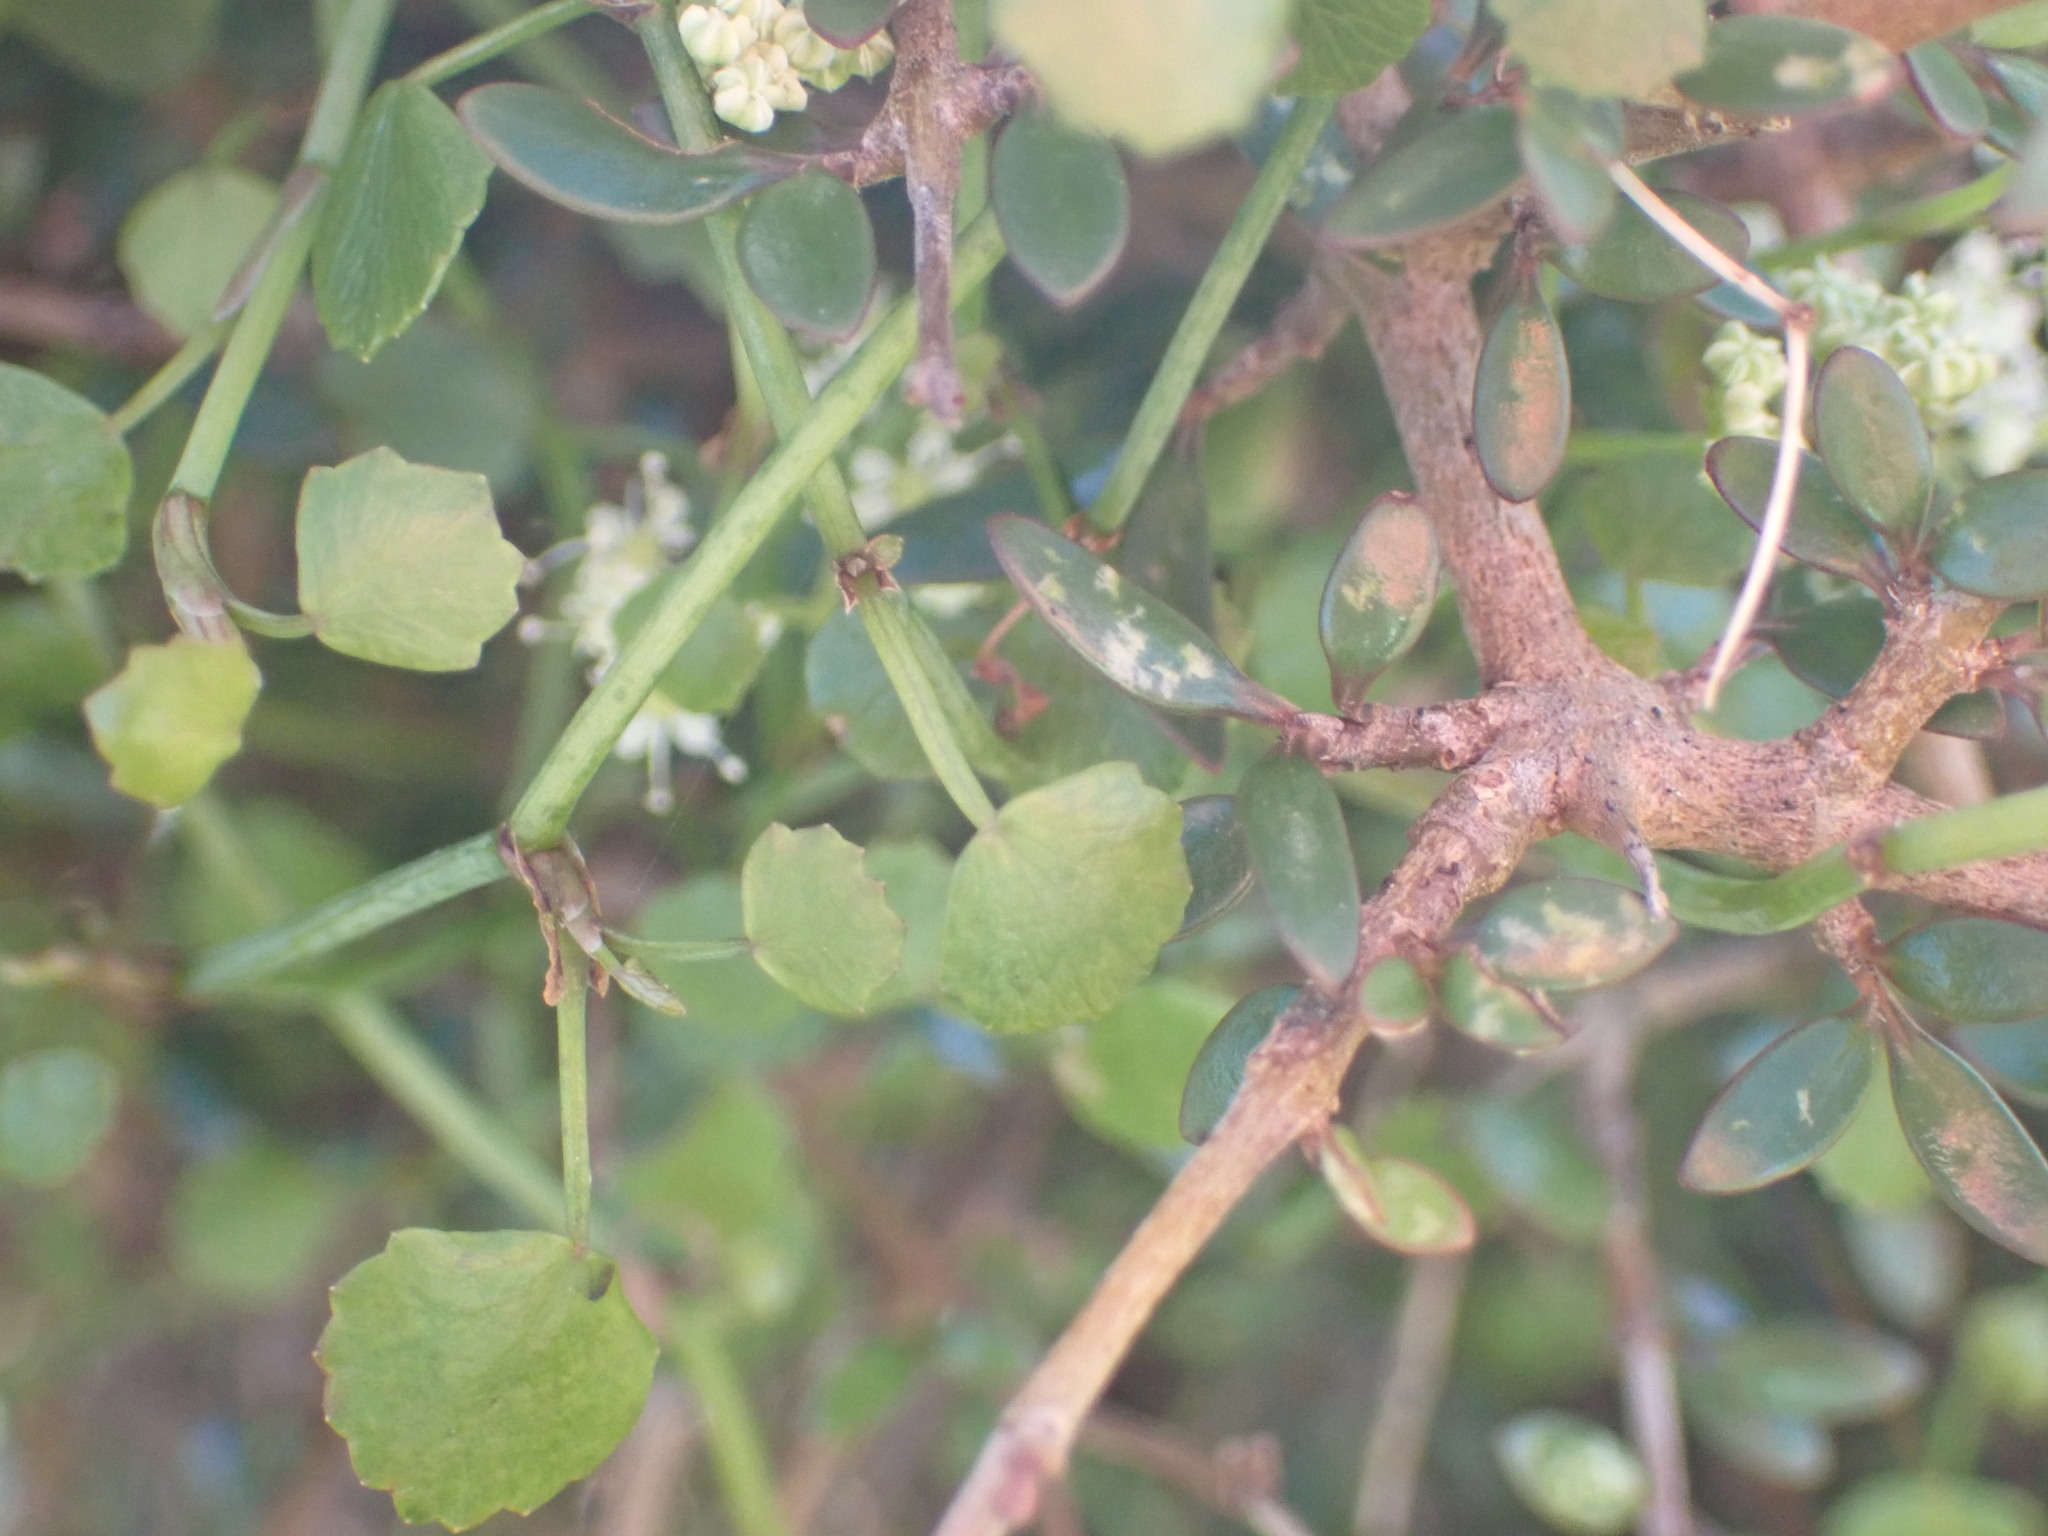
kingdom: Plantae
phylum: Tracheophyta
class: Magnoliopsida
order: Apiales
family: Apiaceae
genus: Scandia
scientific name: Scandia geniculata
